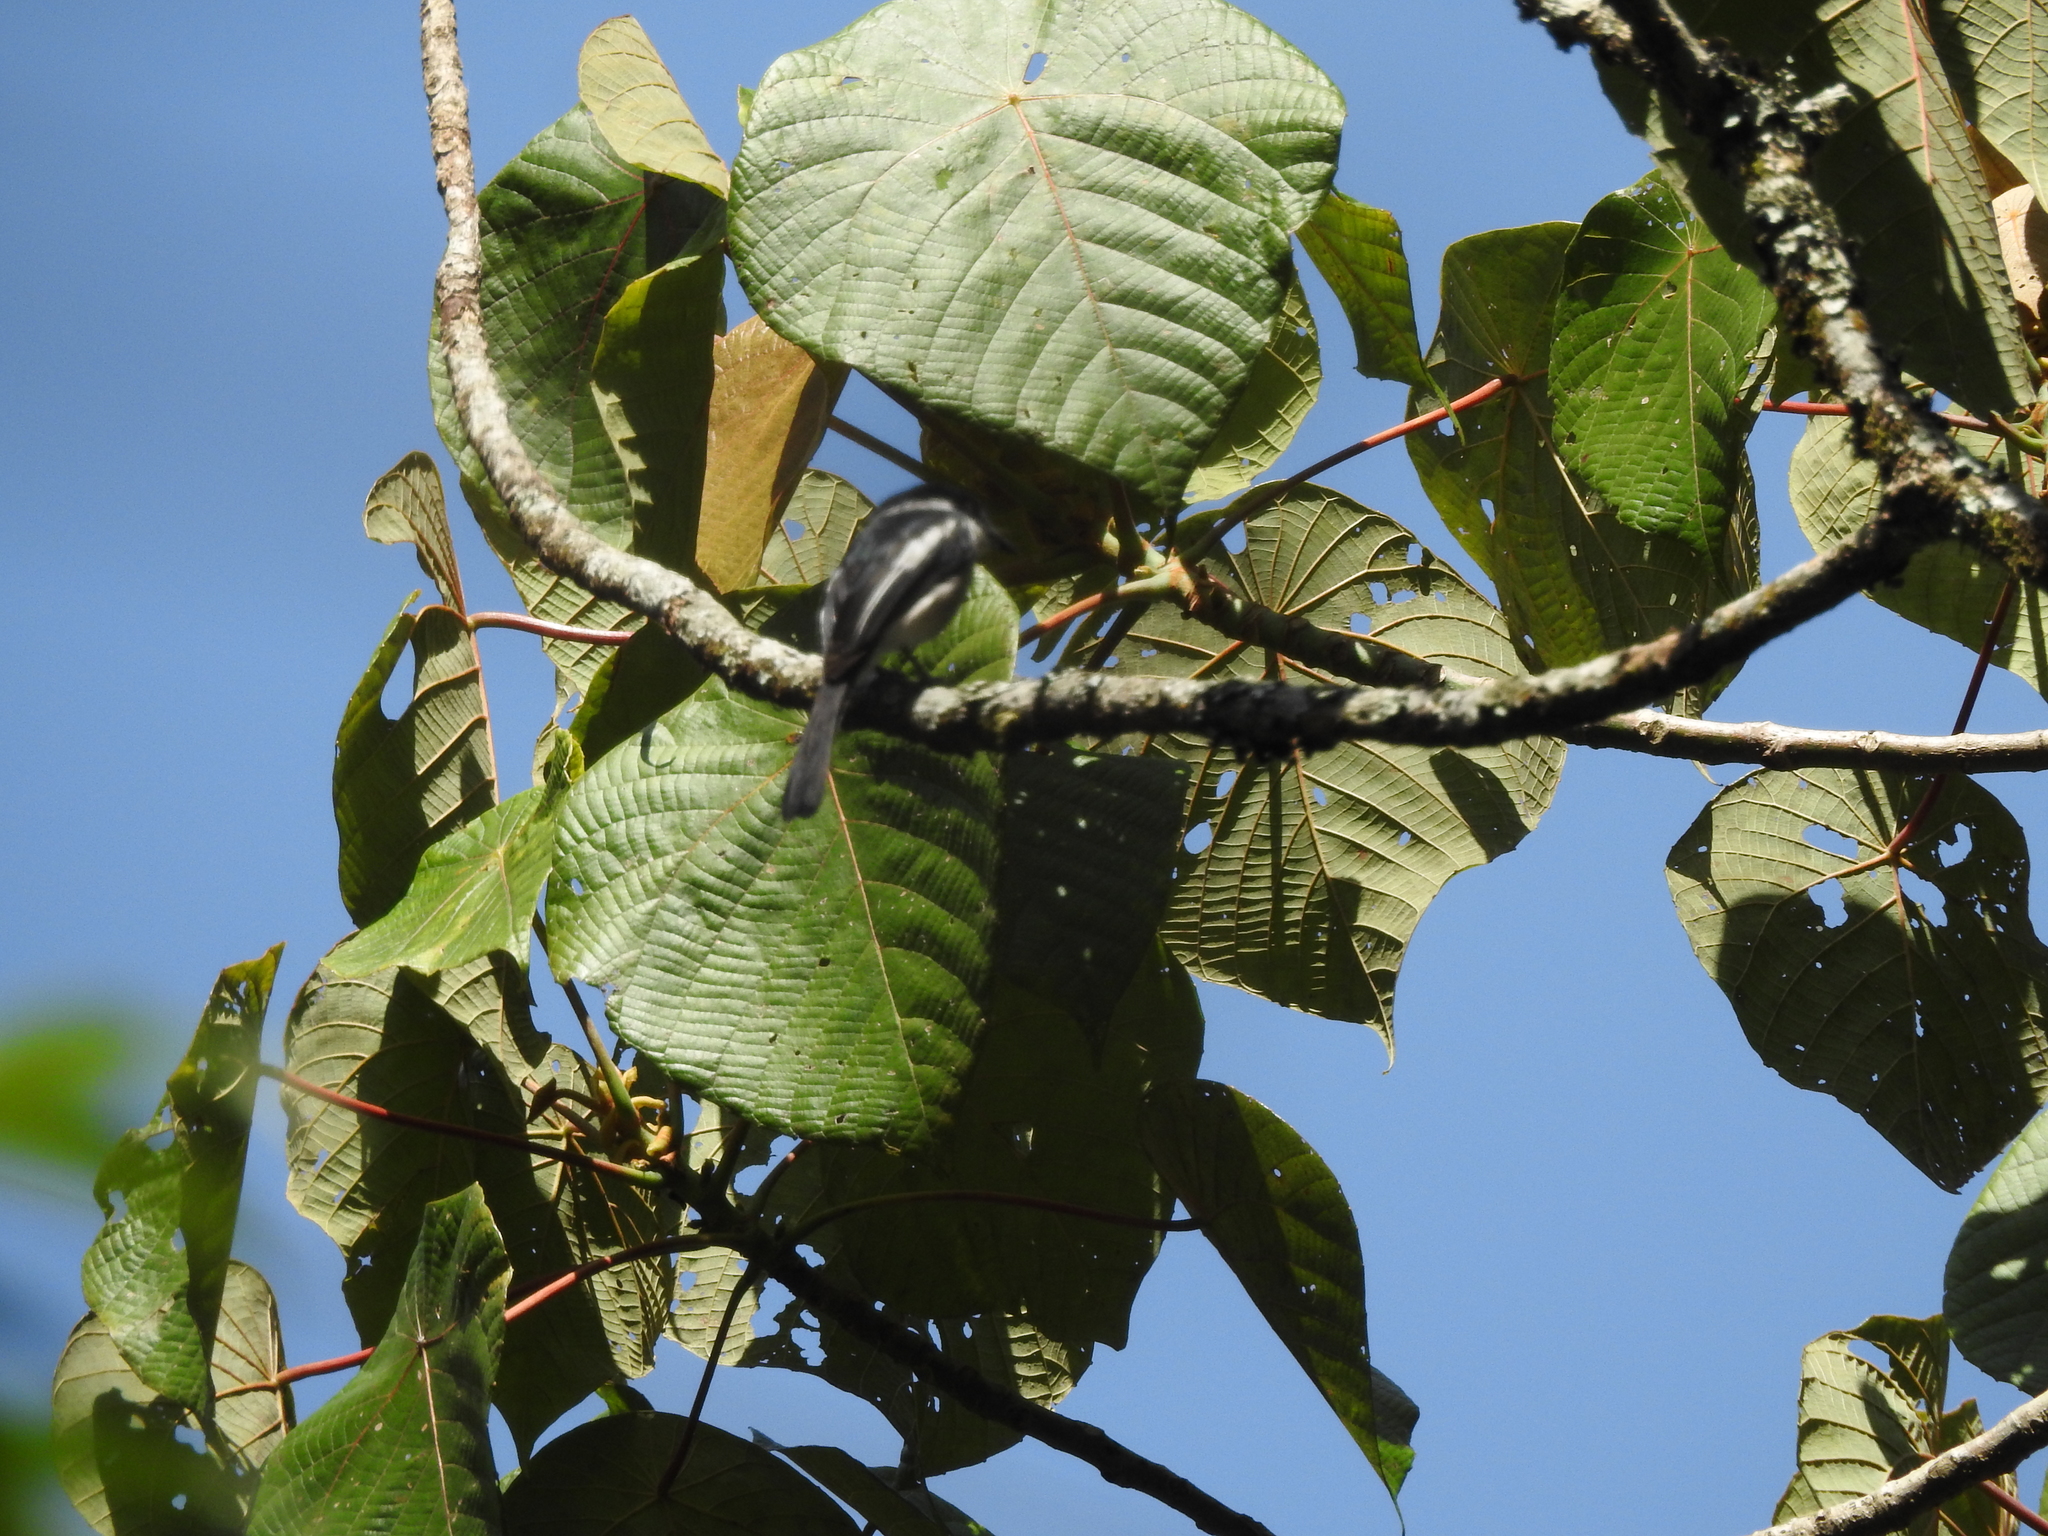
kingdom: Animalia
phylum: Chordata
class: Aves
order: Passeriformes
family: Tephrodornithidae
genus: Hemipus
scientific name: Hemipus picatus
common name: Bar-winged flycatcher-shrike
